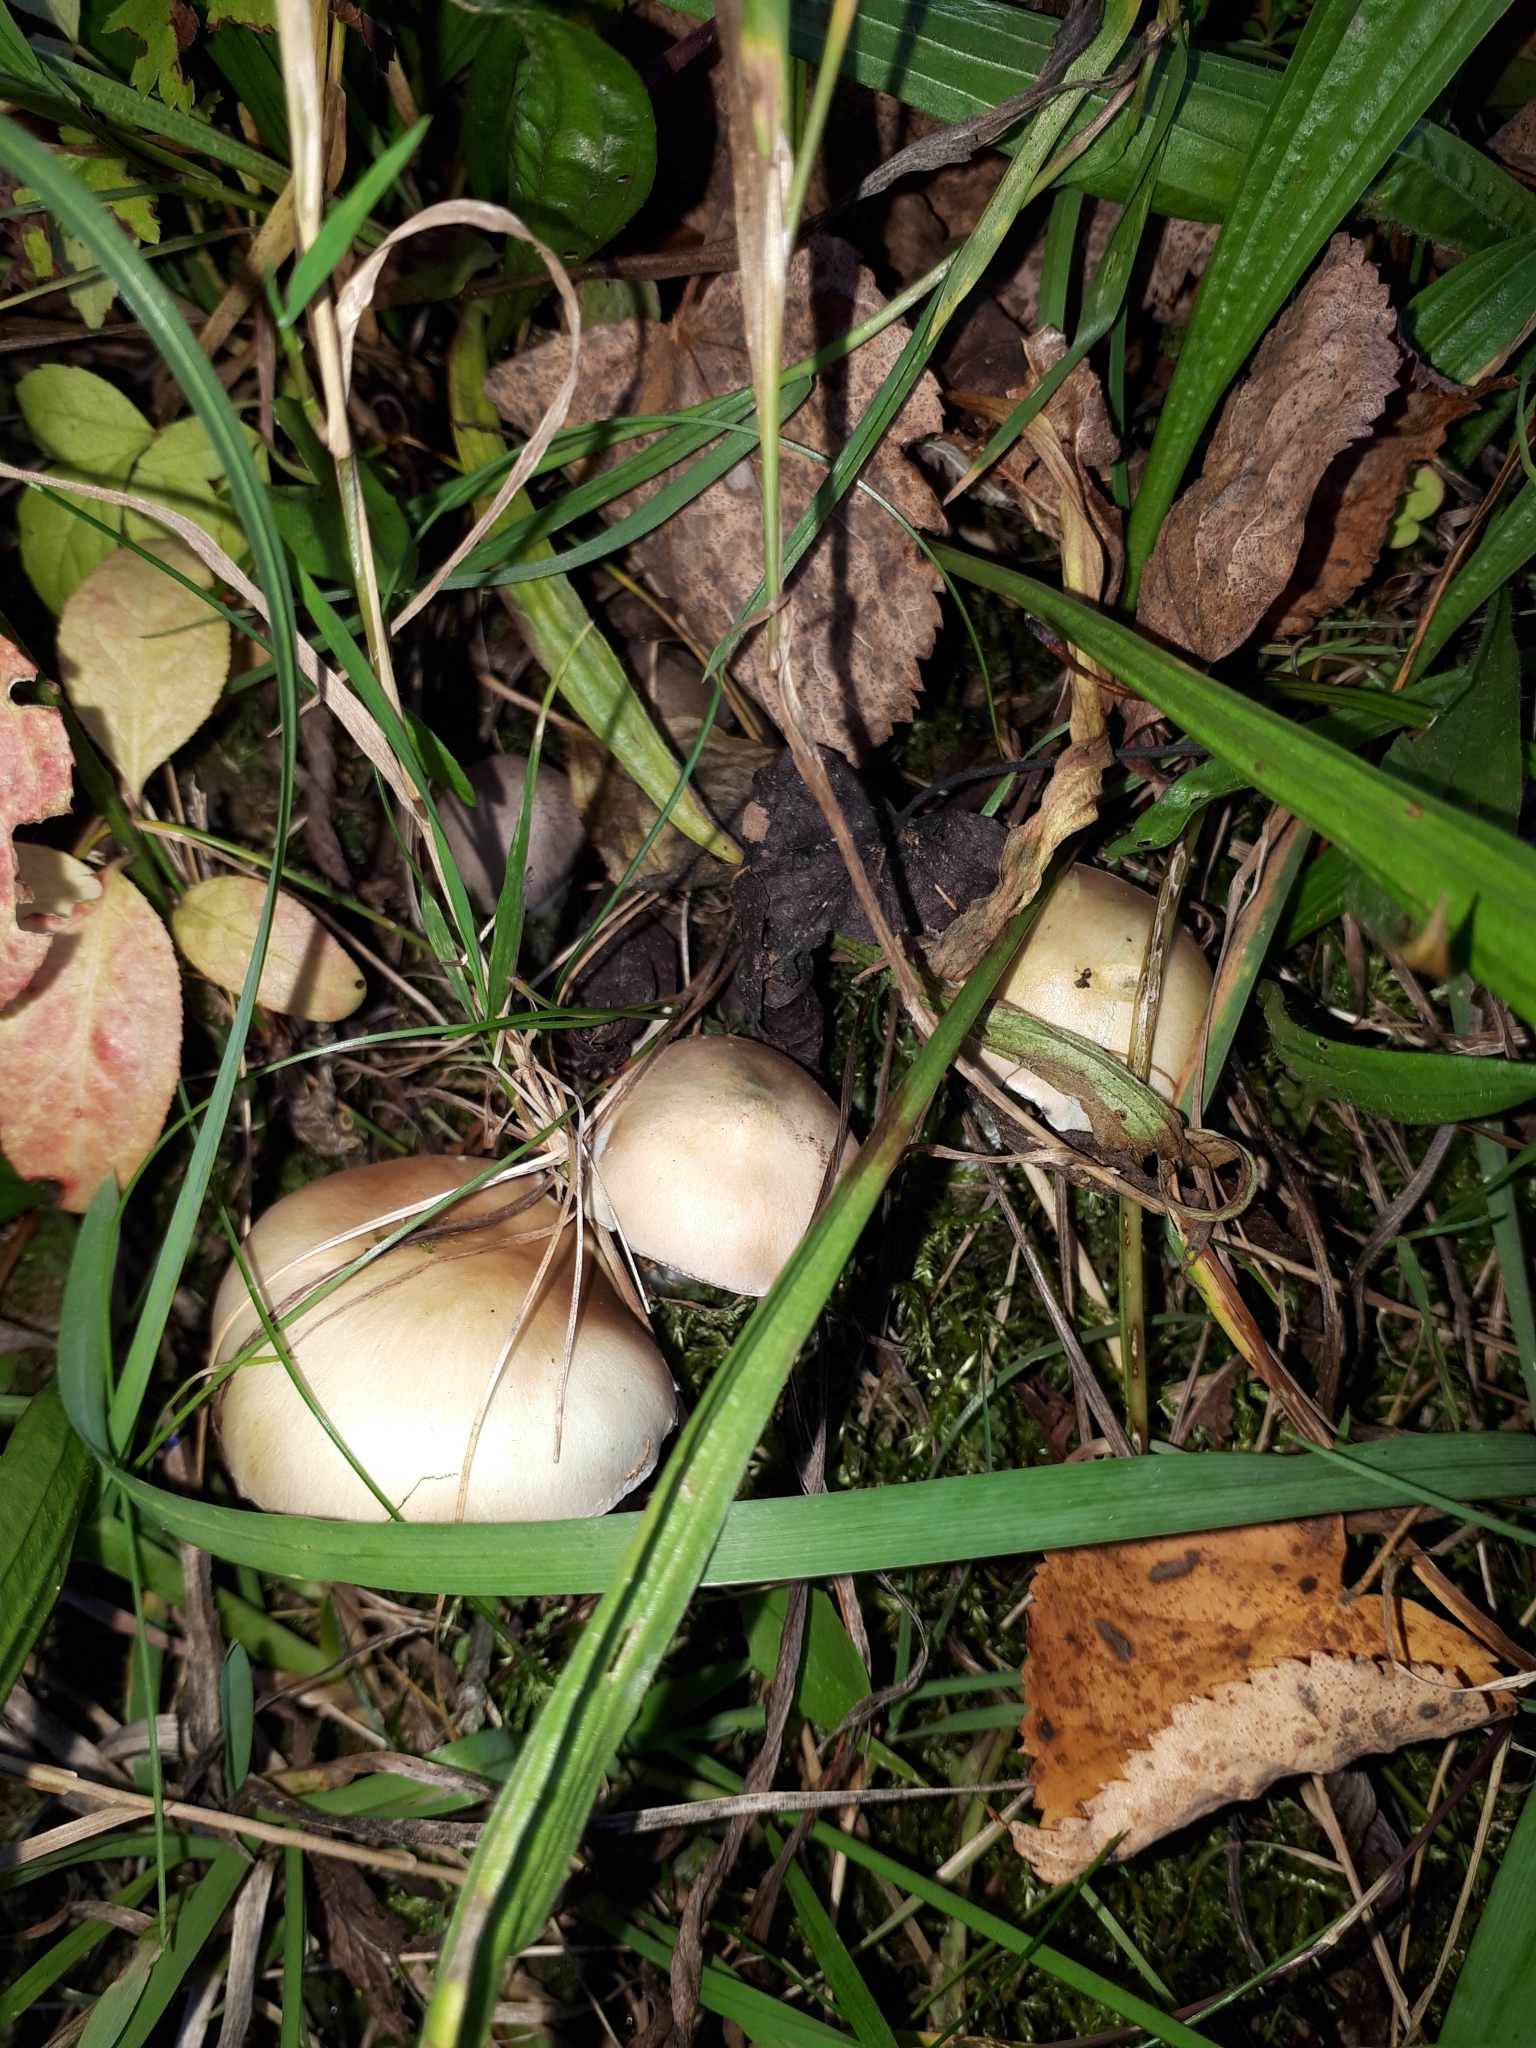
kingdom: Fungi
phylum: Basidiomycota
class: Agaricomycetes
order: Agaricales
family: Strophariaceae
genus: Stropharia
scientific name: Stropharia pseudocyanea
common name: Peppery roundhead
